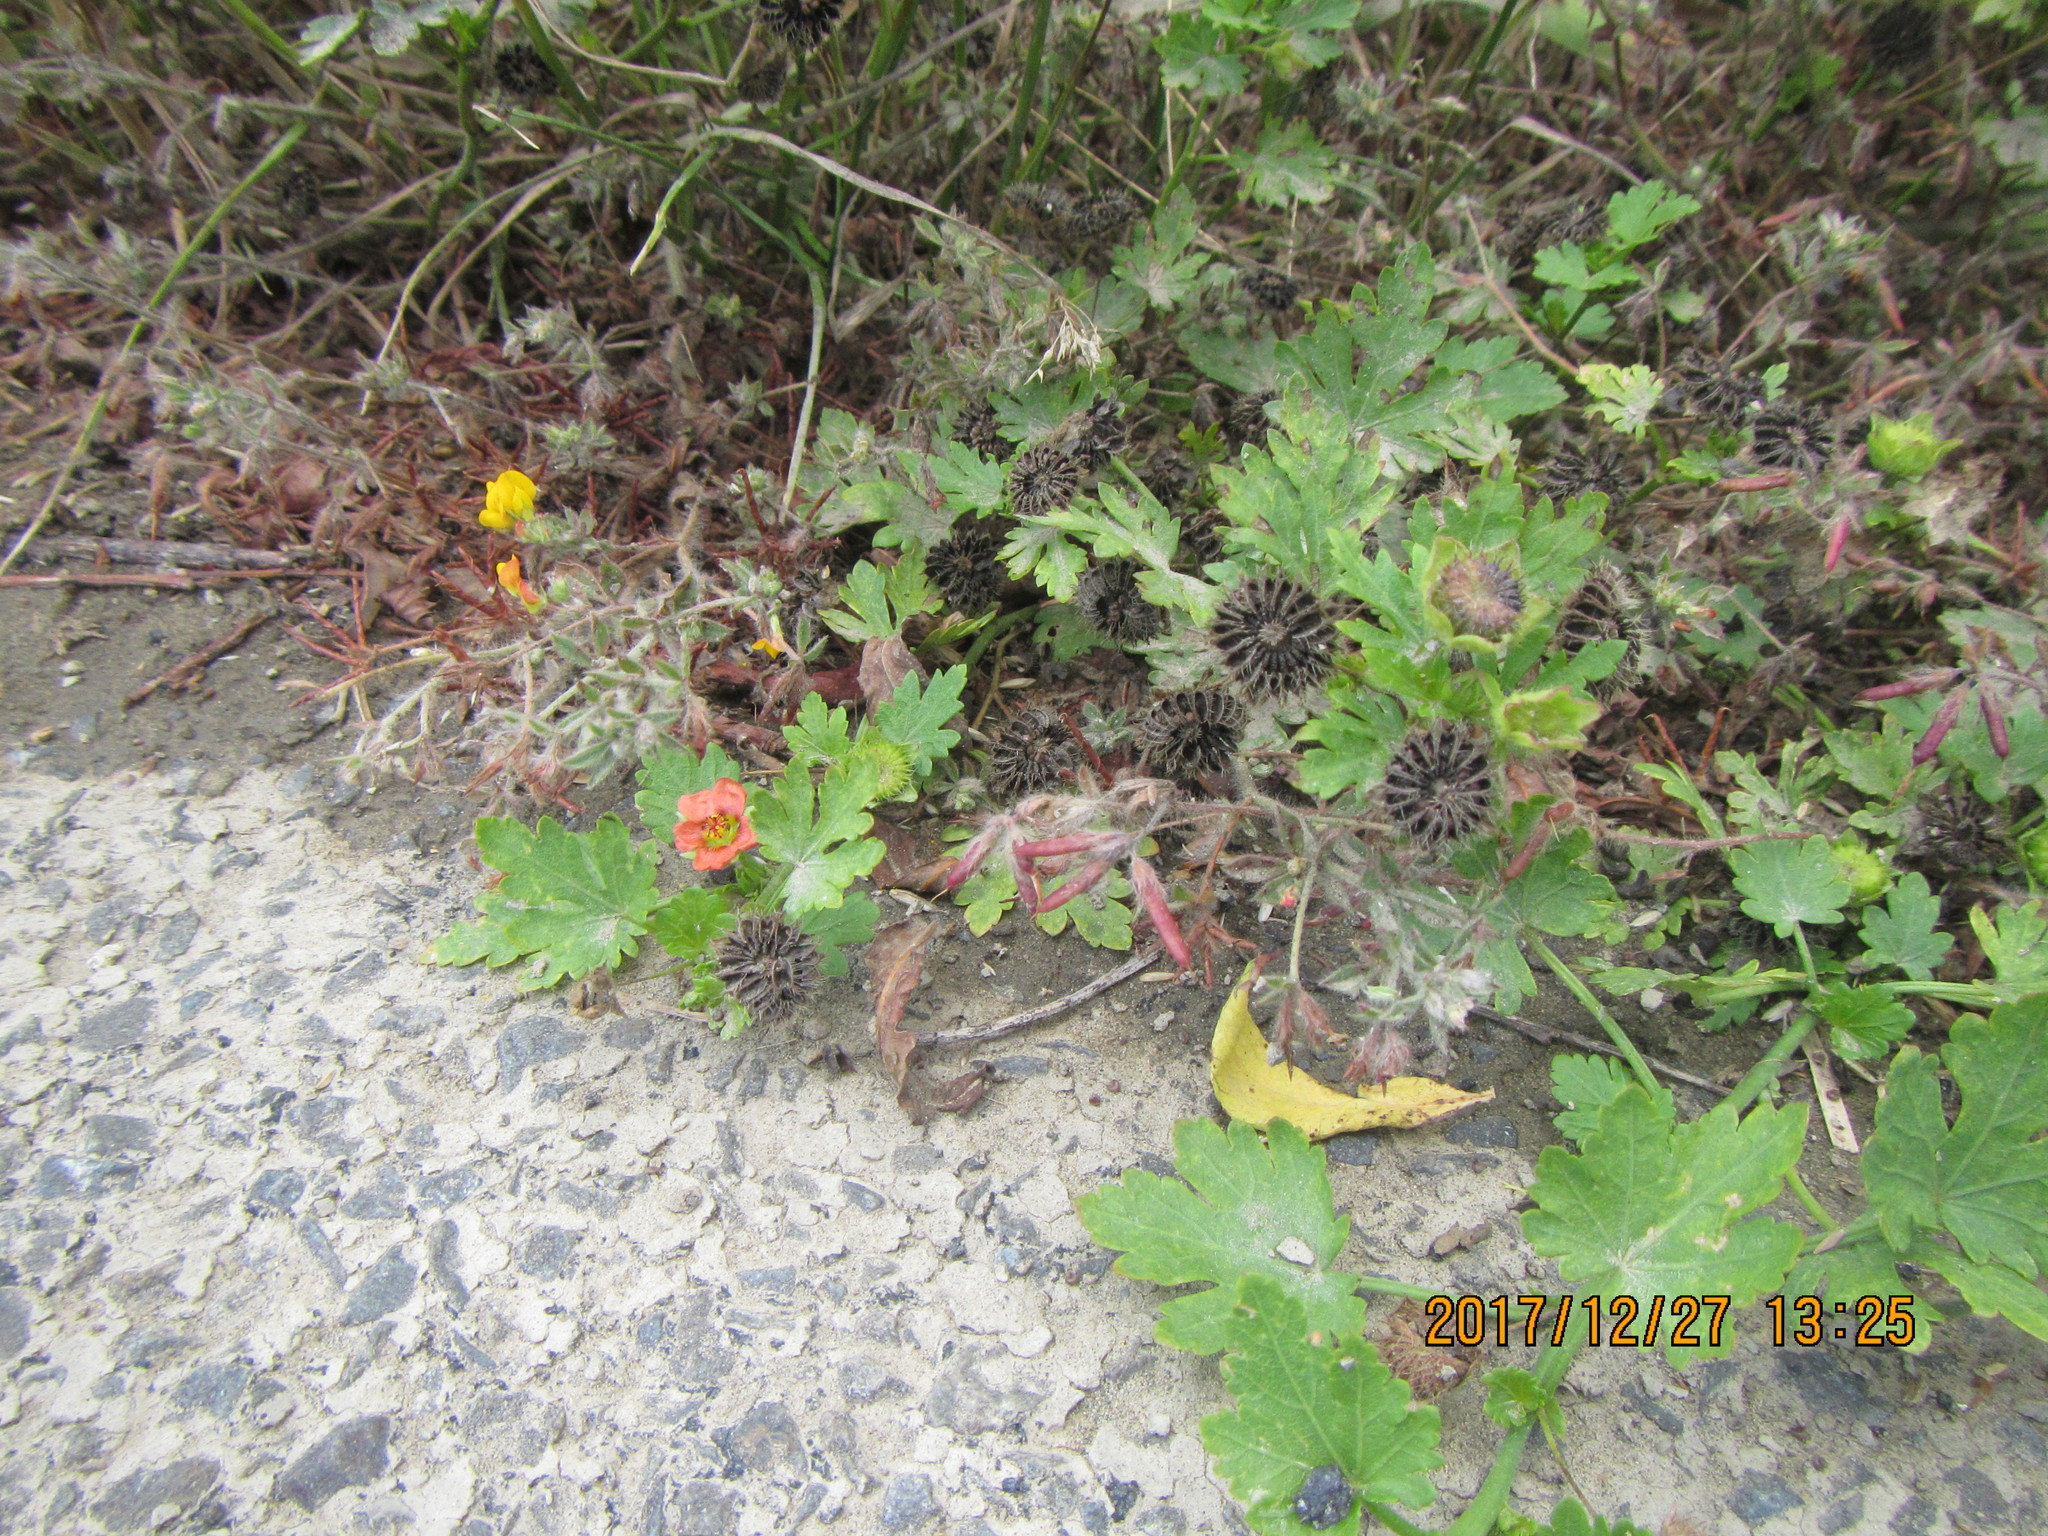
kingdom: Plantae
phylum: Tracheophyta
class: Magnoliopsida
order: Malvales
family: Malvaceae
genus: Modiola
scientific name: Modiola caroliniana
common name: Carolina bristlemallow
